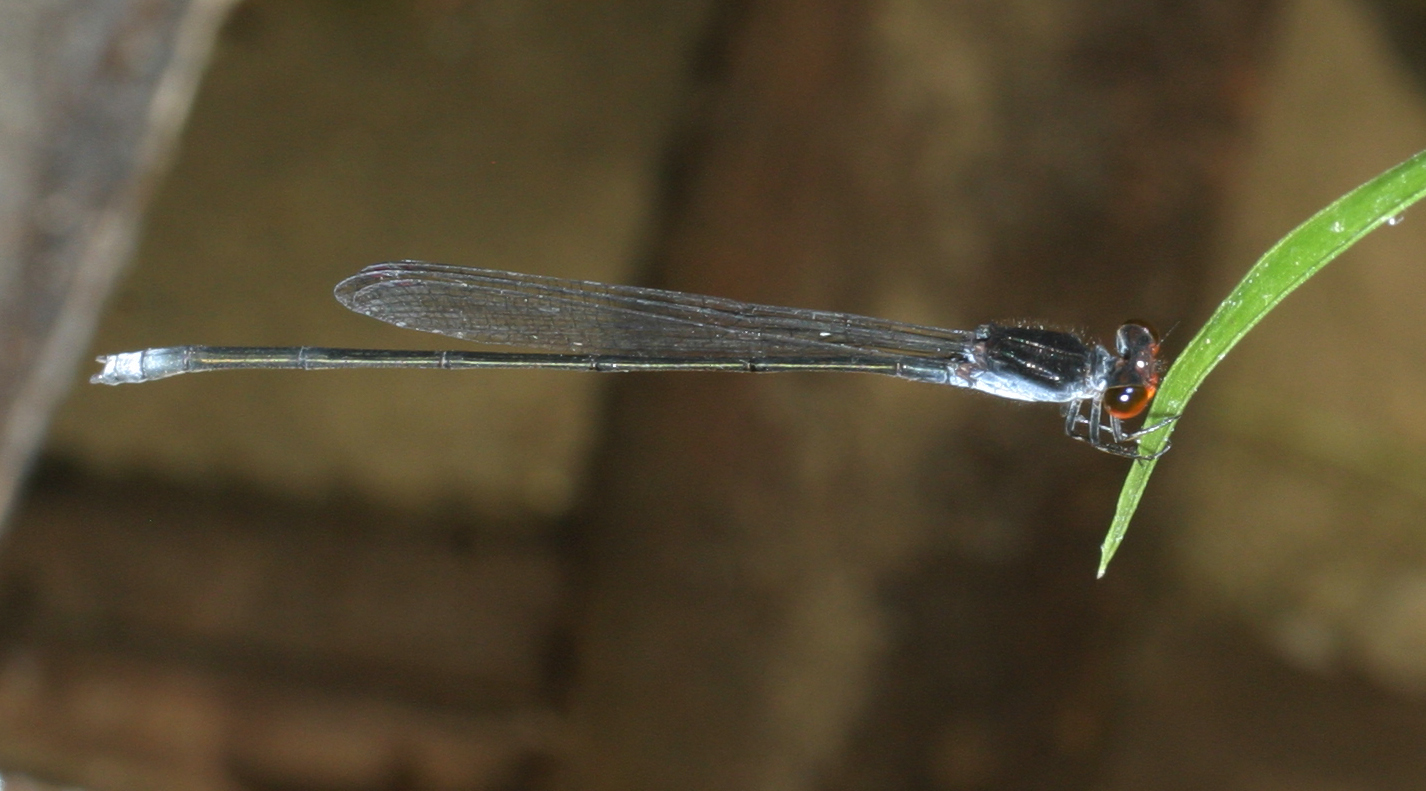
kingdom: Animalia
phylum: Arthropoda
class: Insecta
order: Odonata
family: Coenagrionidae
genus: Pseudagrion
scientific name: Pseudagrion pruinosum
